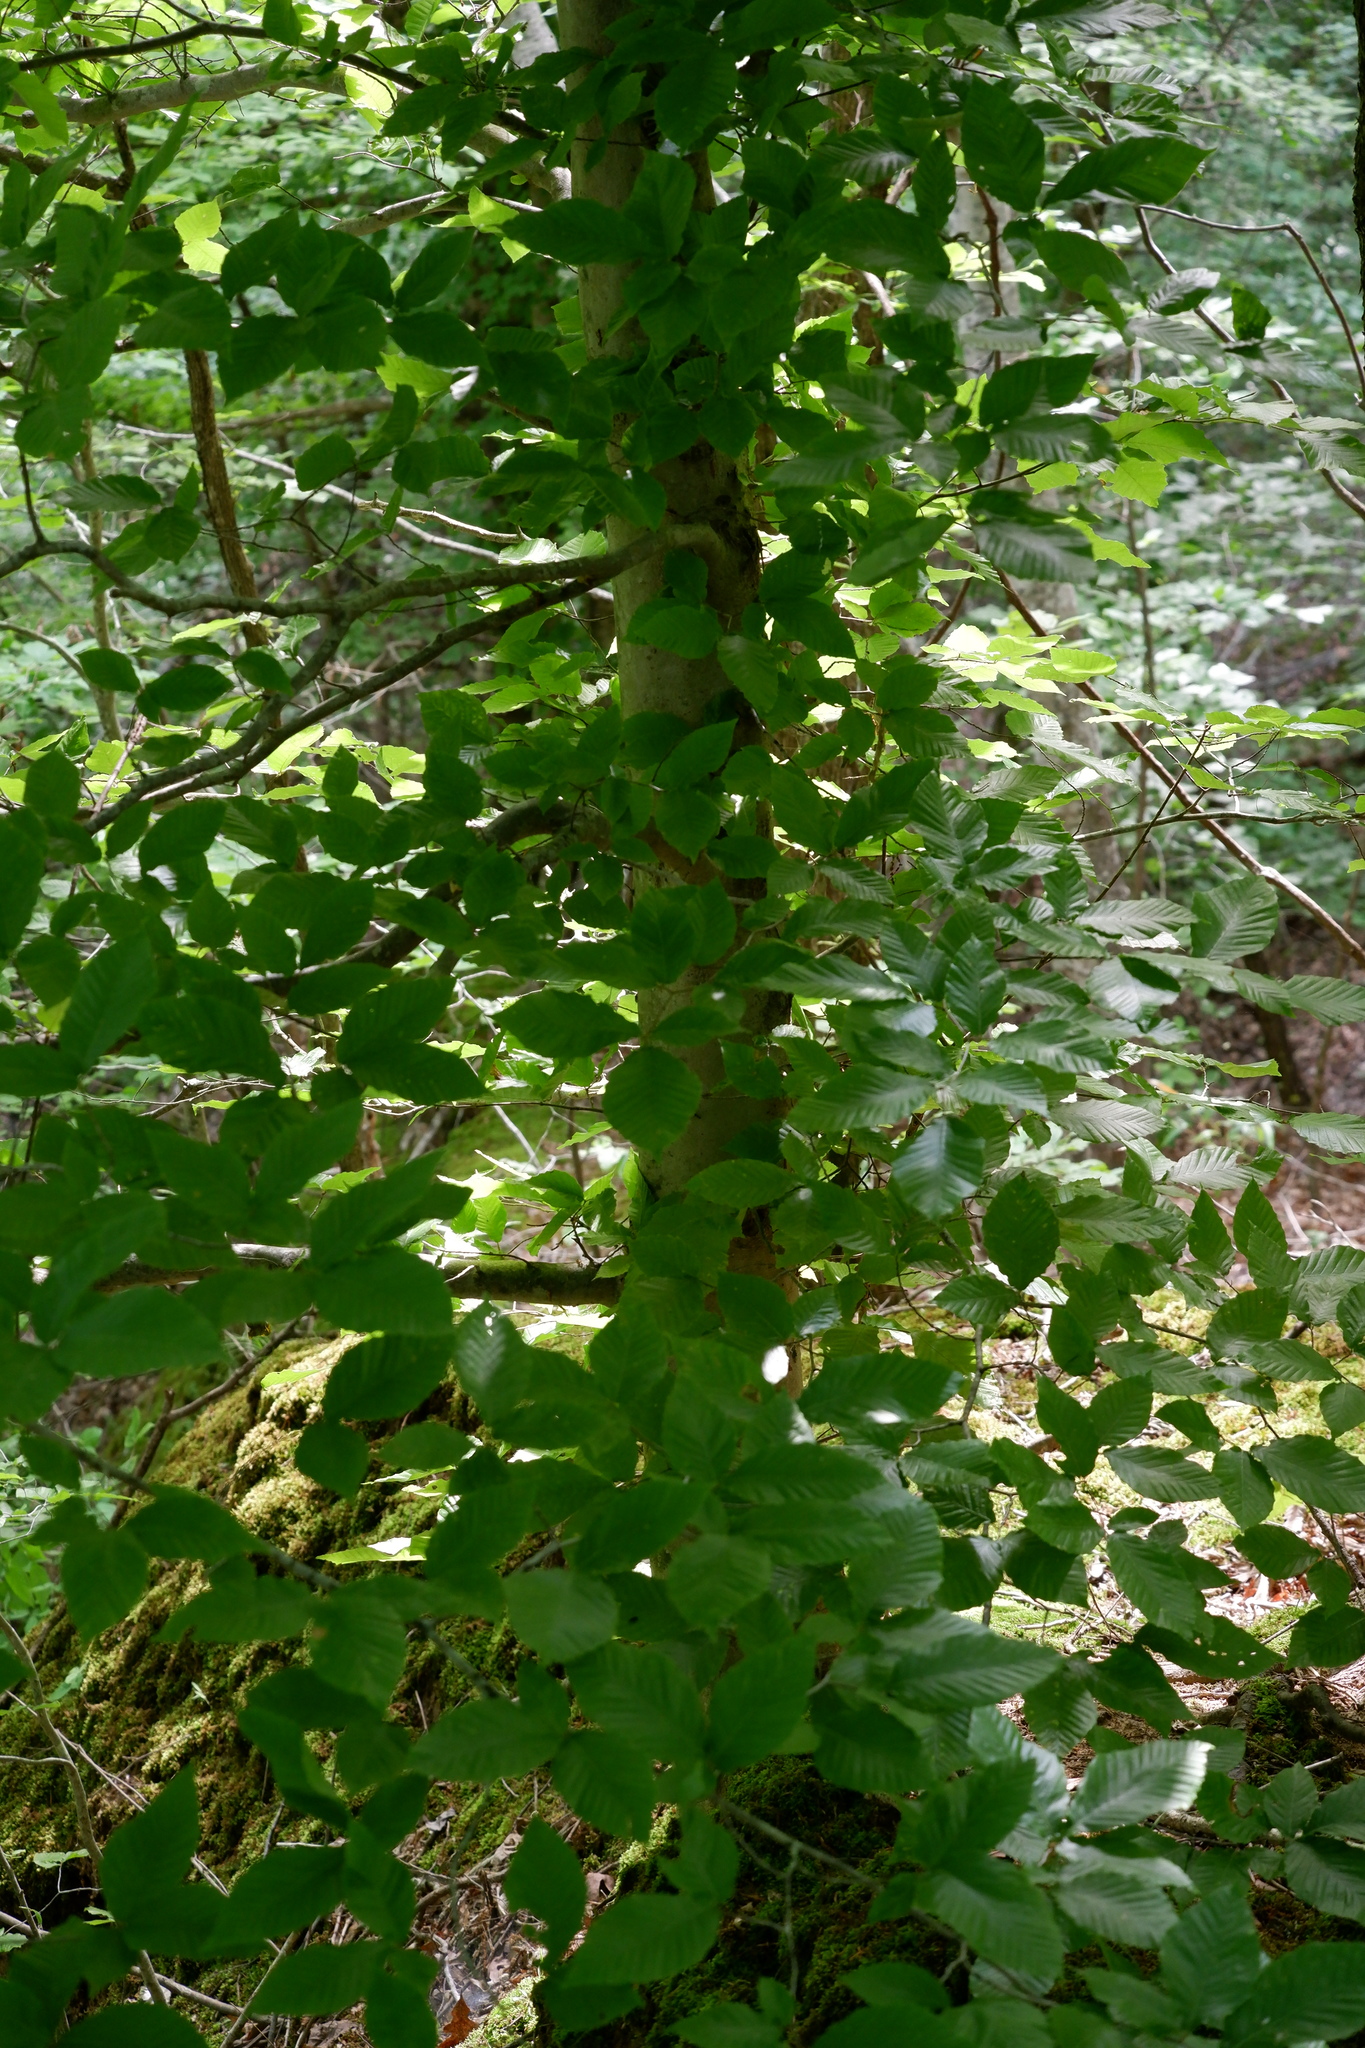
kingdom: Plantae
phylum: Tracheophyta
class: Magnoliopsida
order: Fagales
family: Fagaceae
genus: Fagus
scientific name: Fagus grandifolia
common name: American beech
